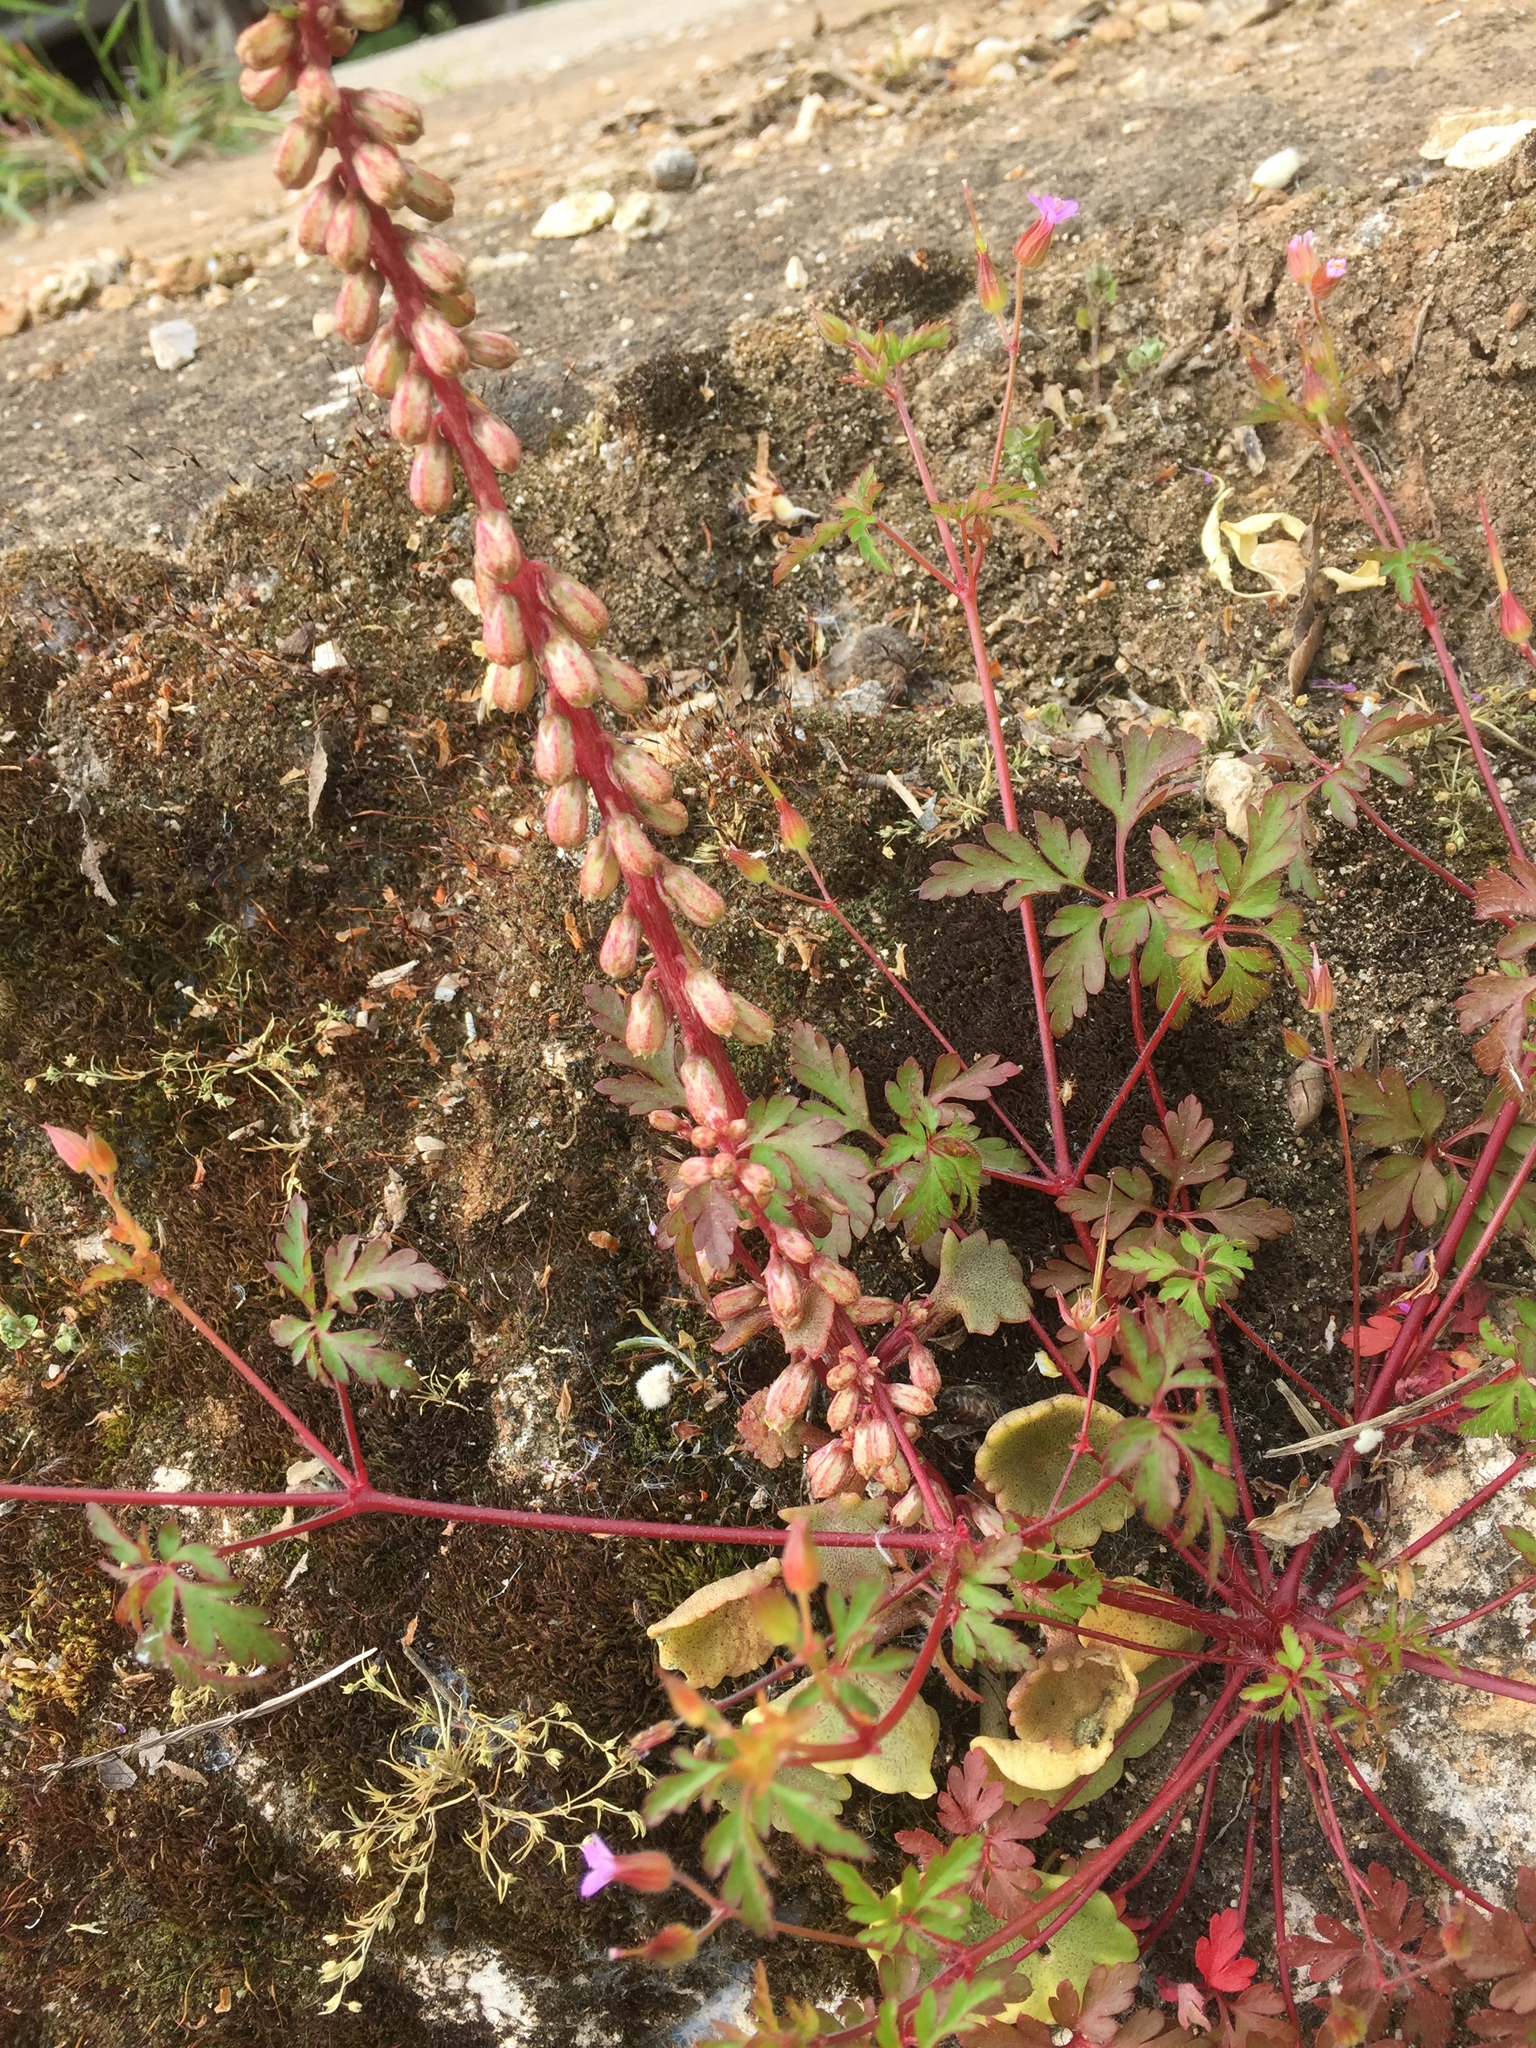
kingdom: Plantae
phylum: Tracheophyta
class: Magnoliopsida
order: Saxifragales
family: Crassulaceae
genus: Umbilicus
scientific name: Umbilicus rupestris
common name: Navelwort
